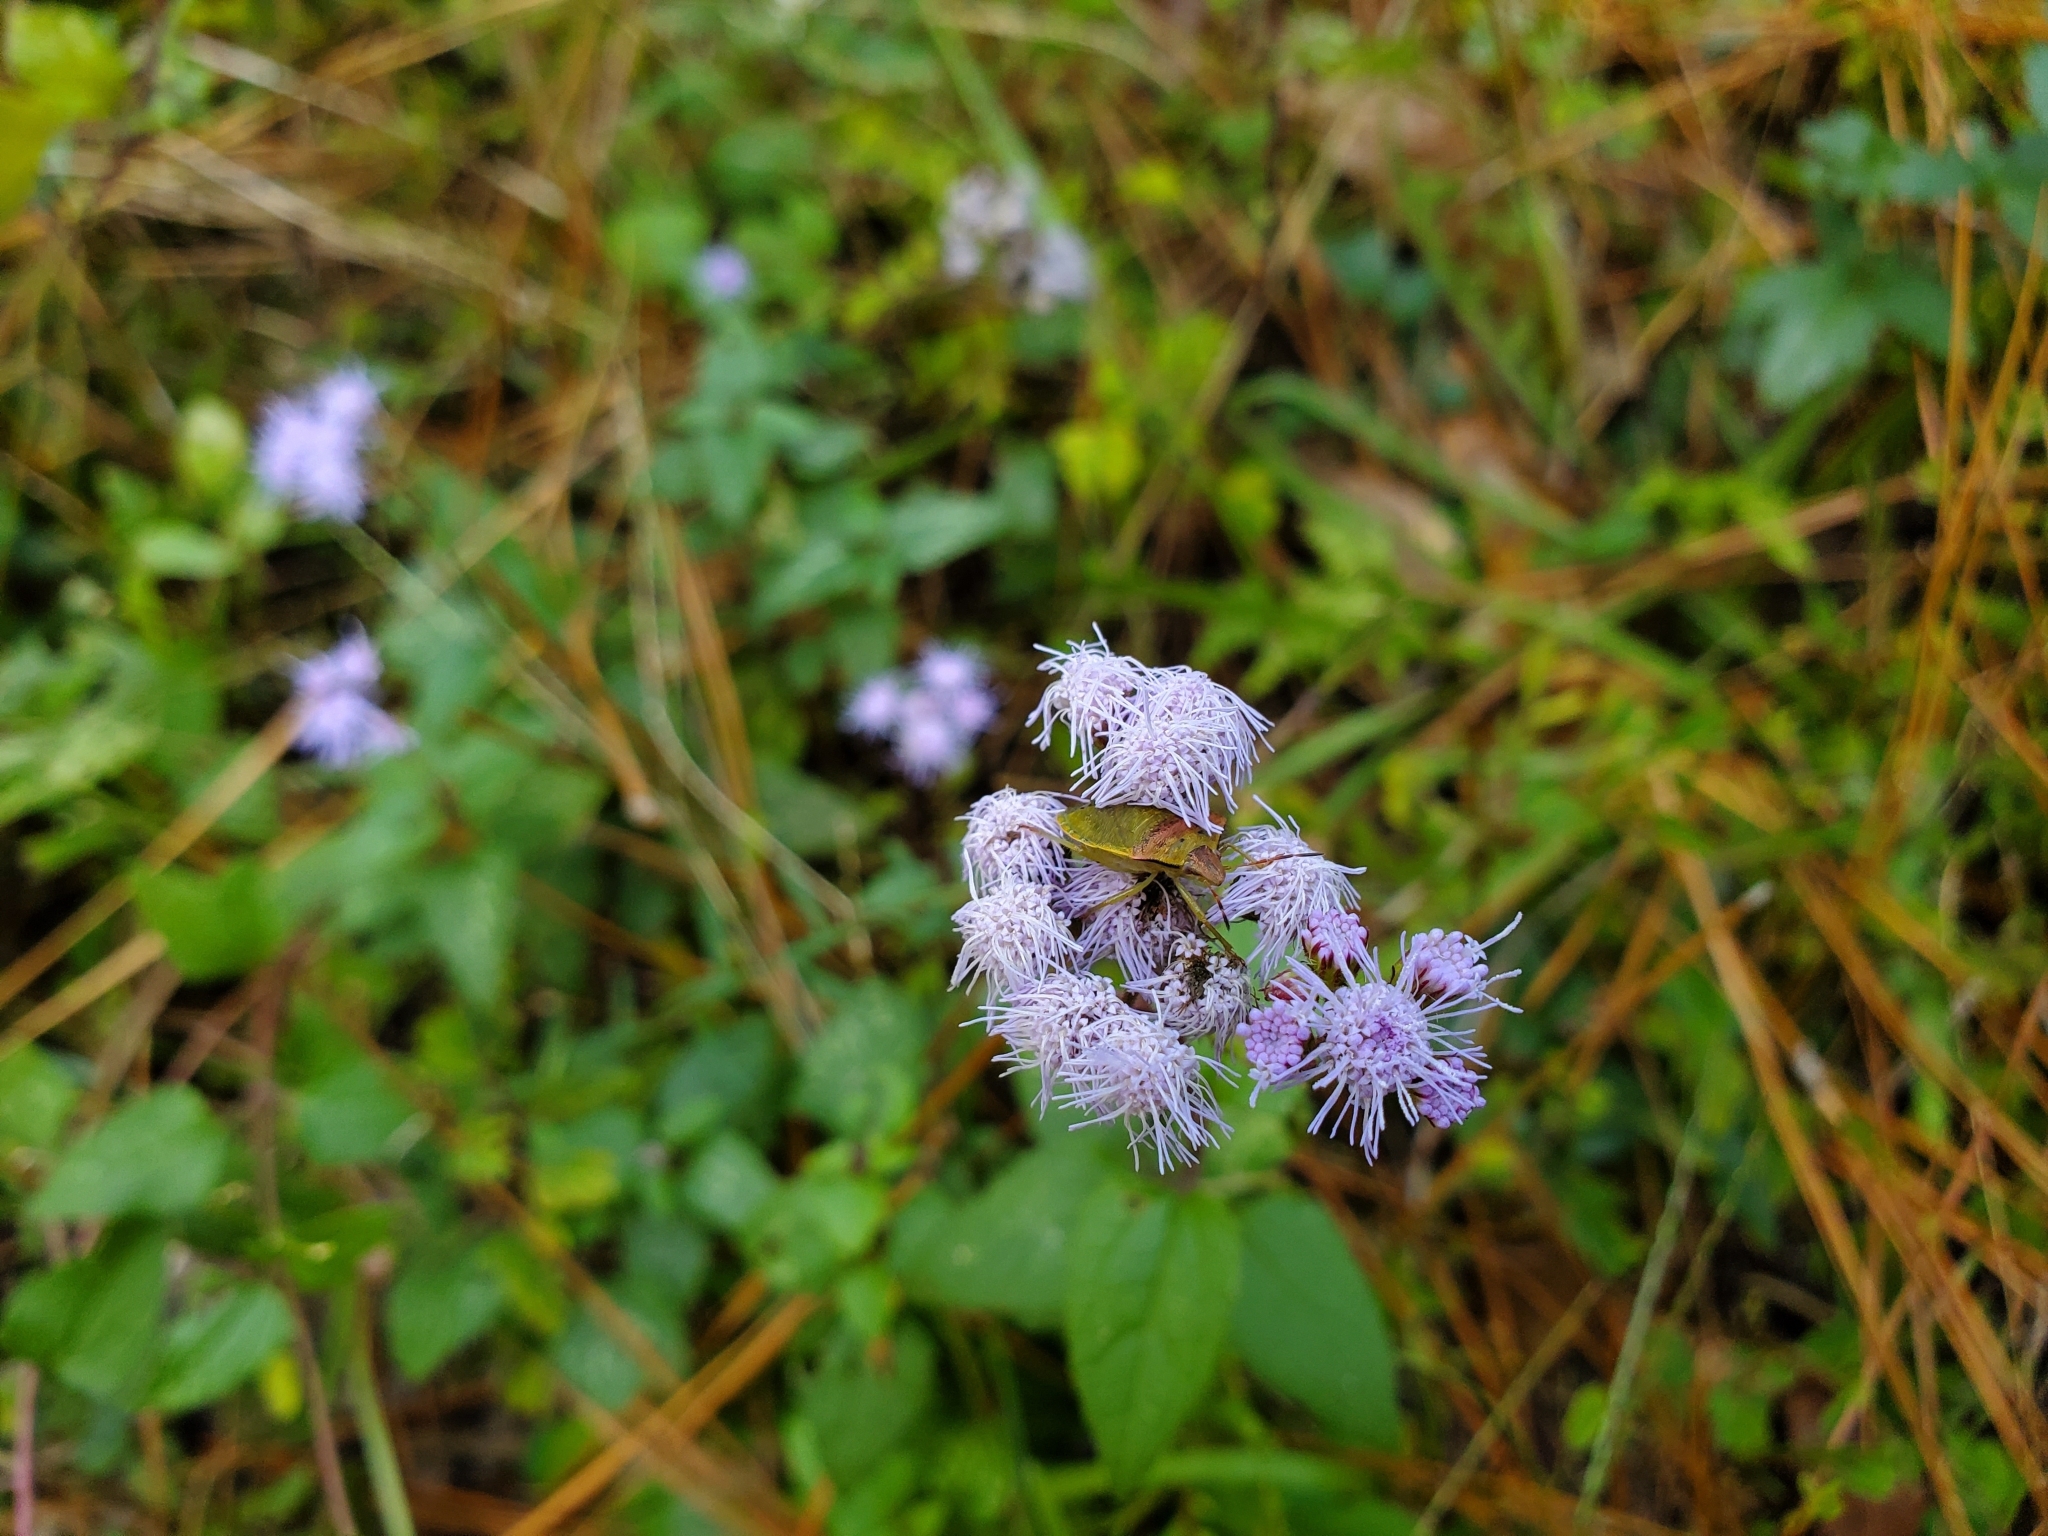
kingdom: Plantae
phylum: Tracheophyta
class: Magnoliopsida
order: Asterales
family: Asteraceae
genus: Conoclinium
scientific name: Conoclinium coelestinum
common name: Blue mistflower
